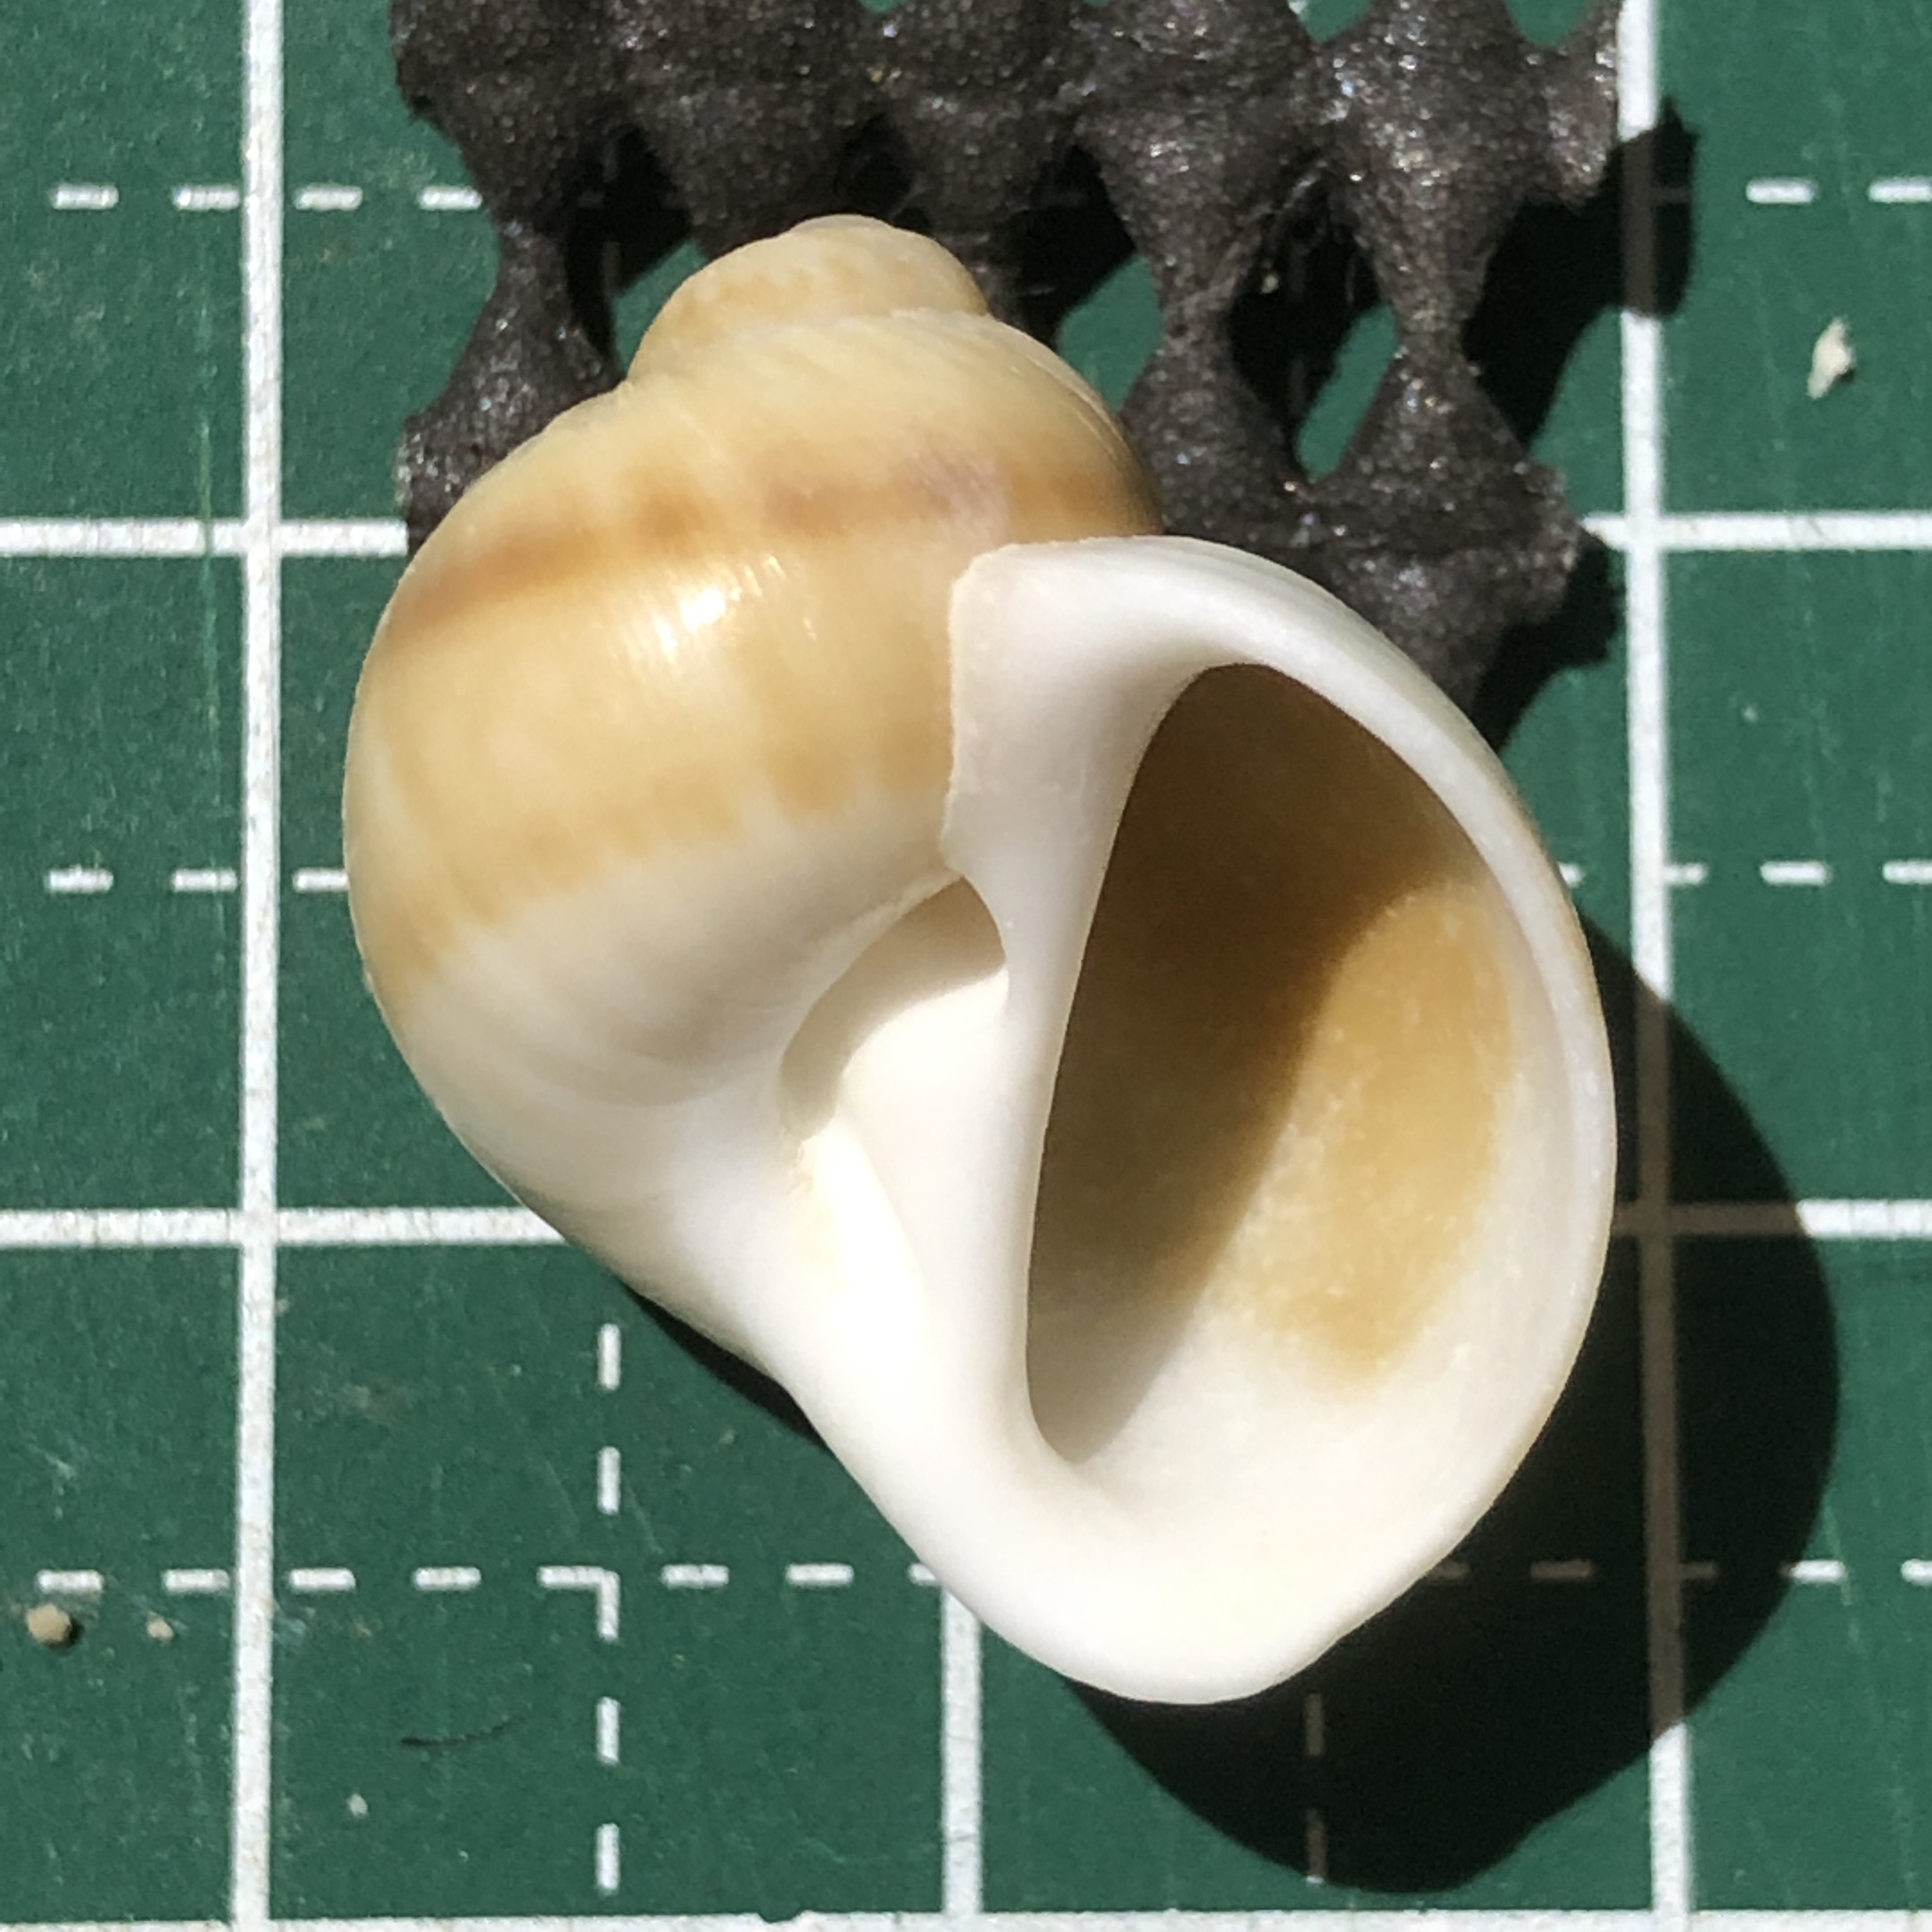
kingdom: Animalia
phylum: Mollusca
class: Gastropoda
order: Littorinimorpha
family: Naticidae
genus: Notocochlis
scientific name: Notocochlis gualteriana
